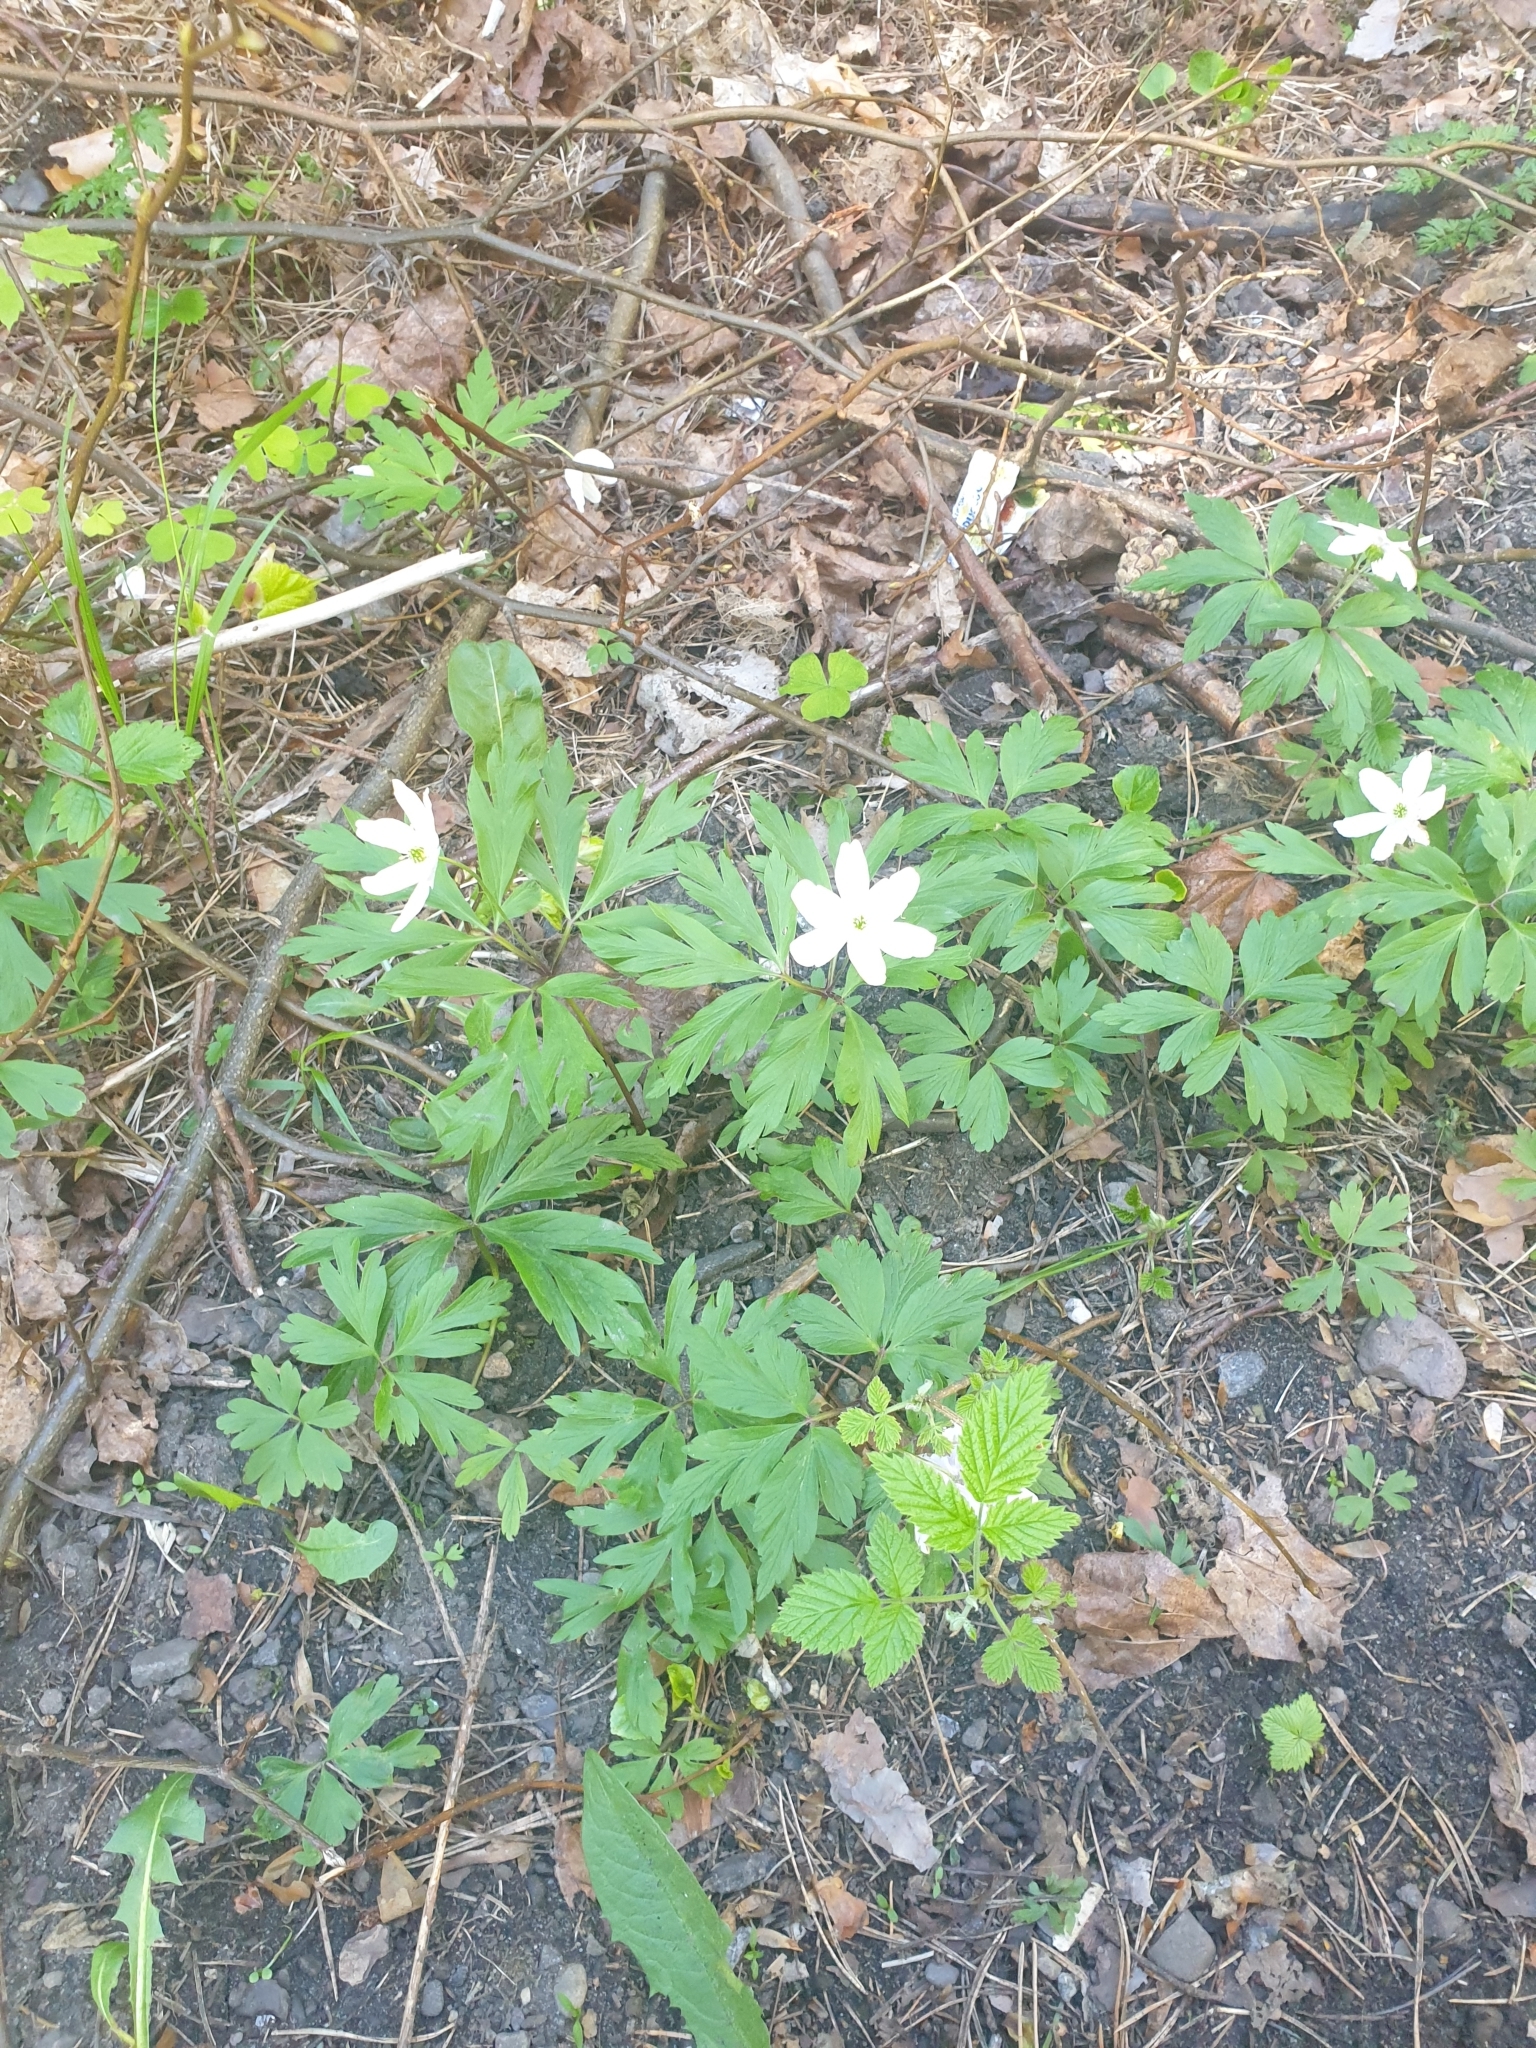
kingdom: Plantae
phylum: Tracheophyta
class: Magnoliopsida
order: Ranunculales
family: Ranunculaceae
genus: Anemone
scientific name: Anemone nemorosa
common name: Wood anemone
